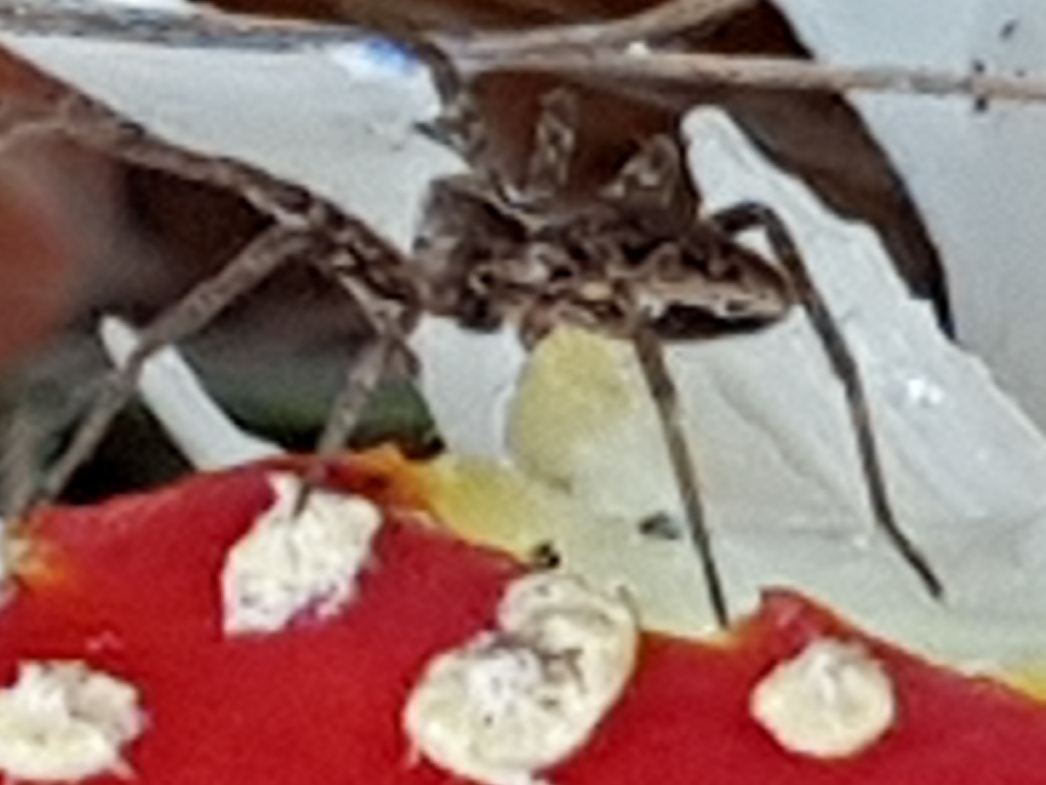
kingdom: Animalia
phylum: Arthropoda
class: Arachnida
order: Araneae
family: Pisauridae
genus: Pisaura
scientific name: Pisaura mirabilis
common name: Tent spider
